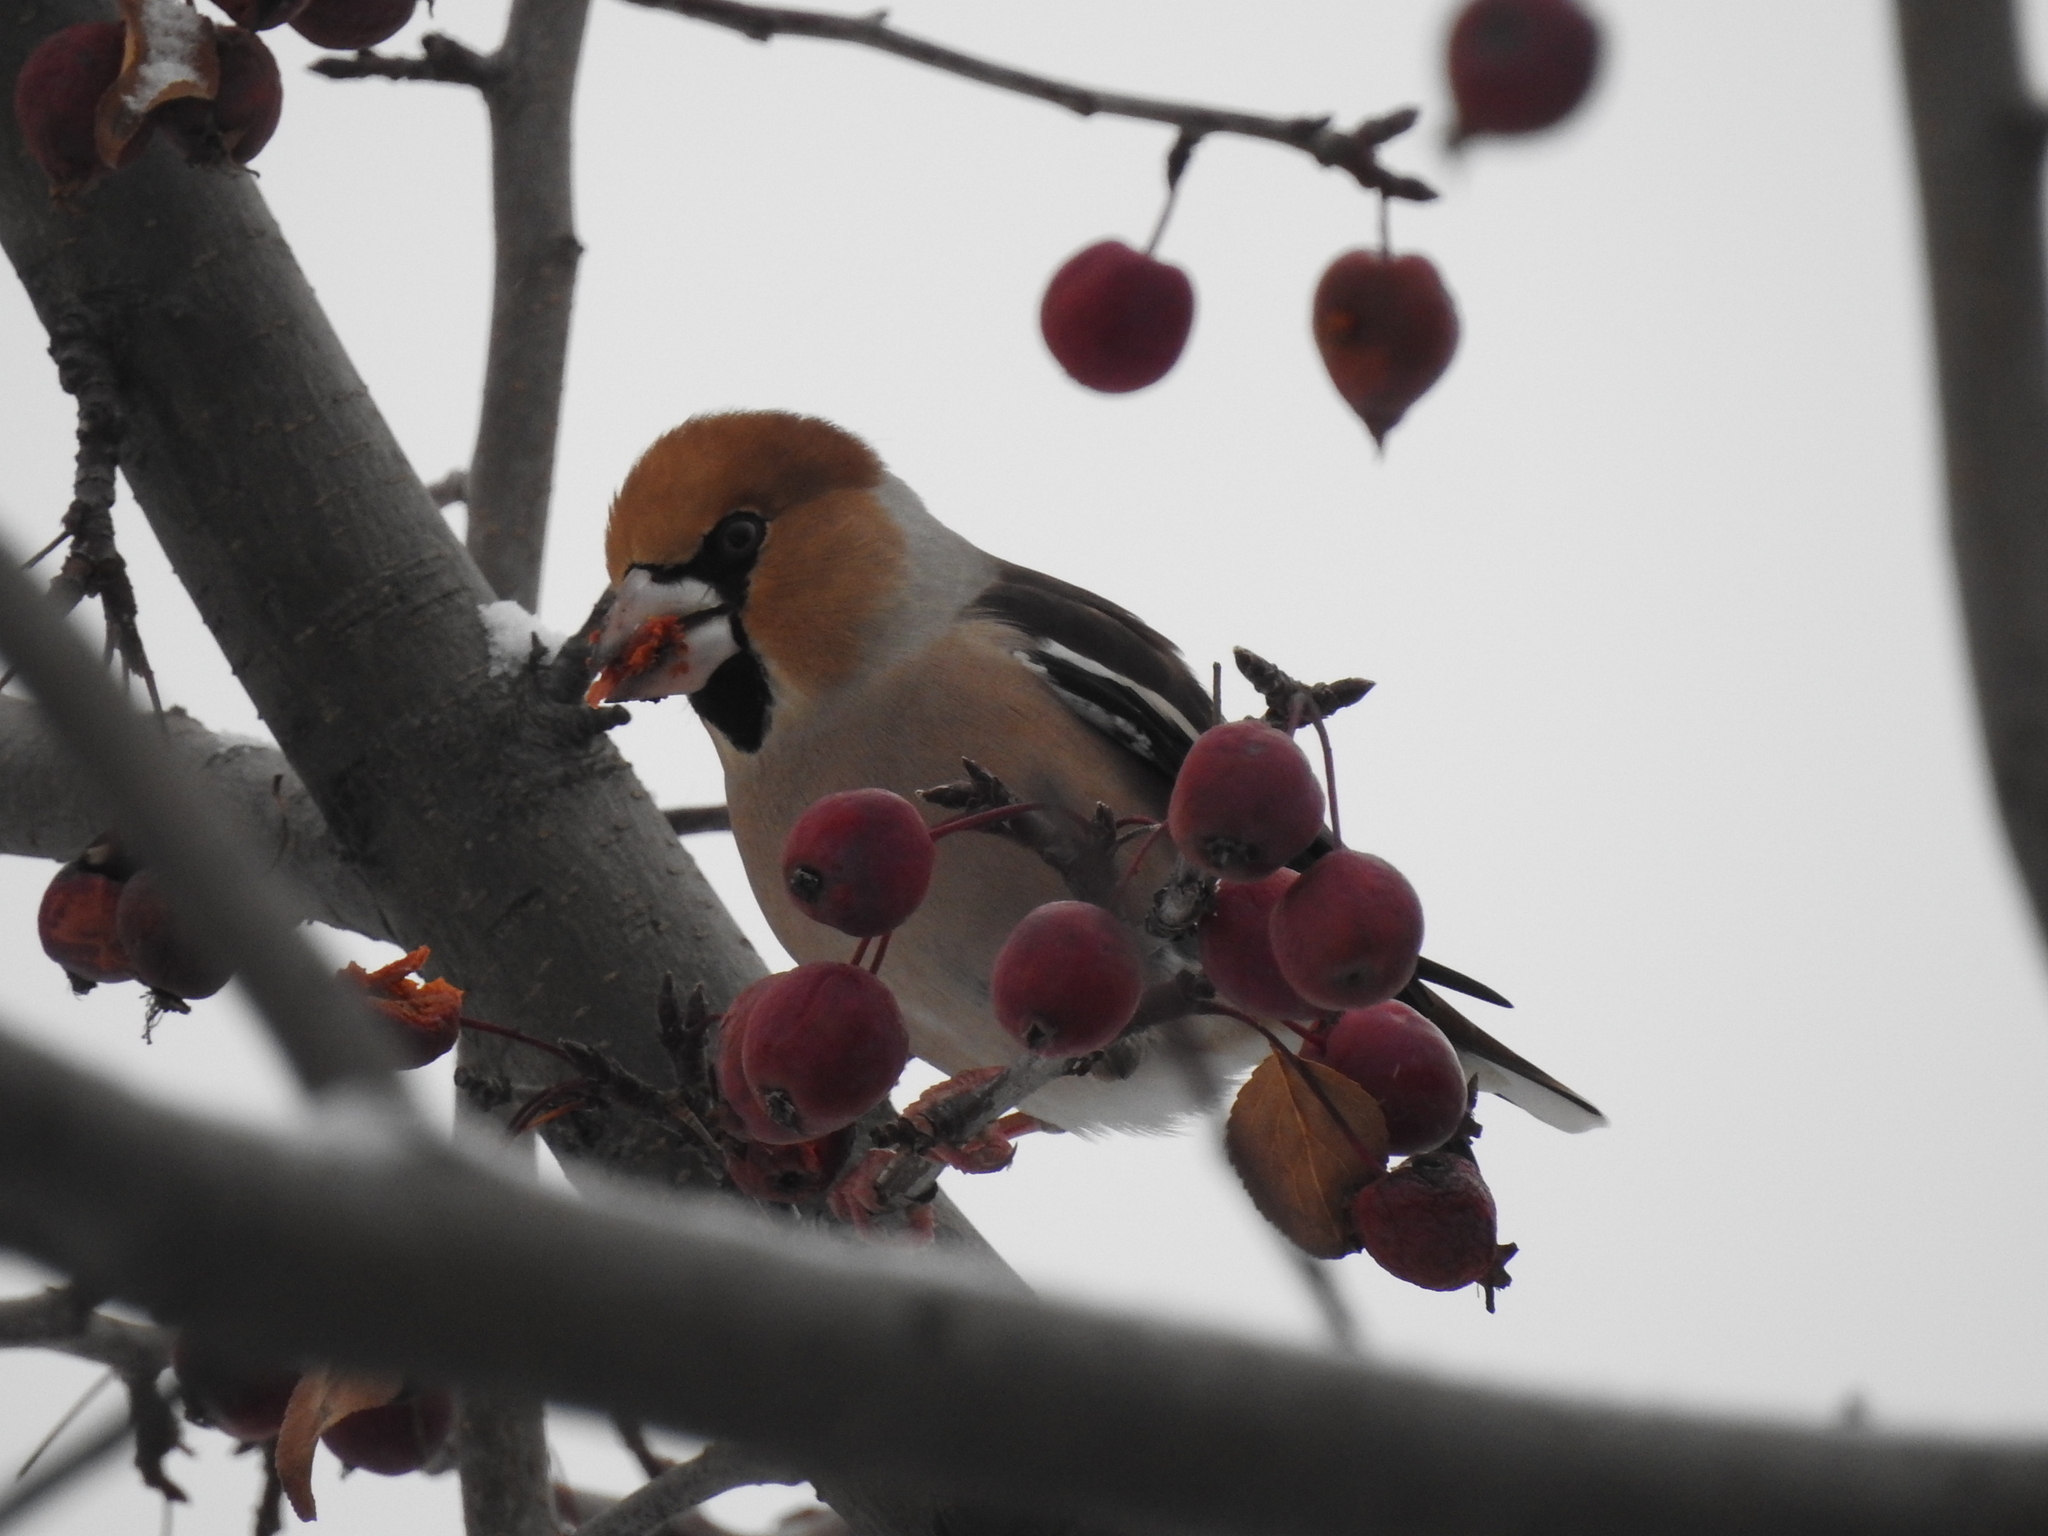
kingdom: Animalia
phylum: Chordata
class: Aves
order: Passeriformes
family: Fringillidae
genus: Coccothraustes
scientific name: Coccothraustes coccothraustes
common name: Hawfinch
